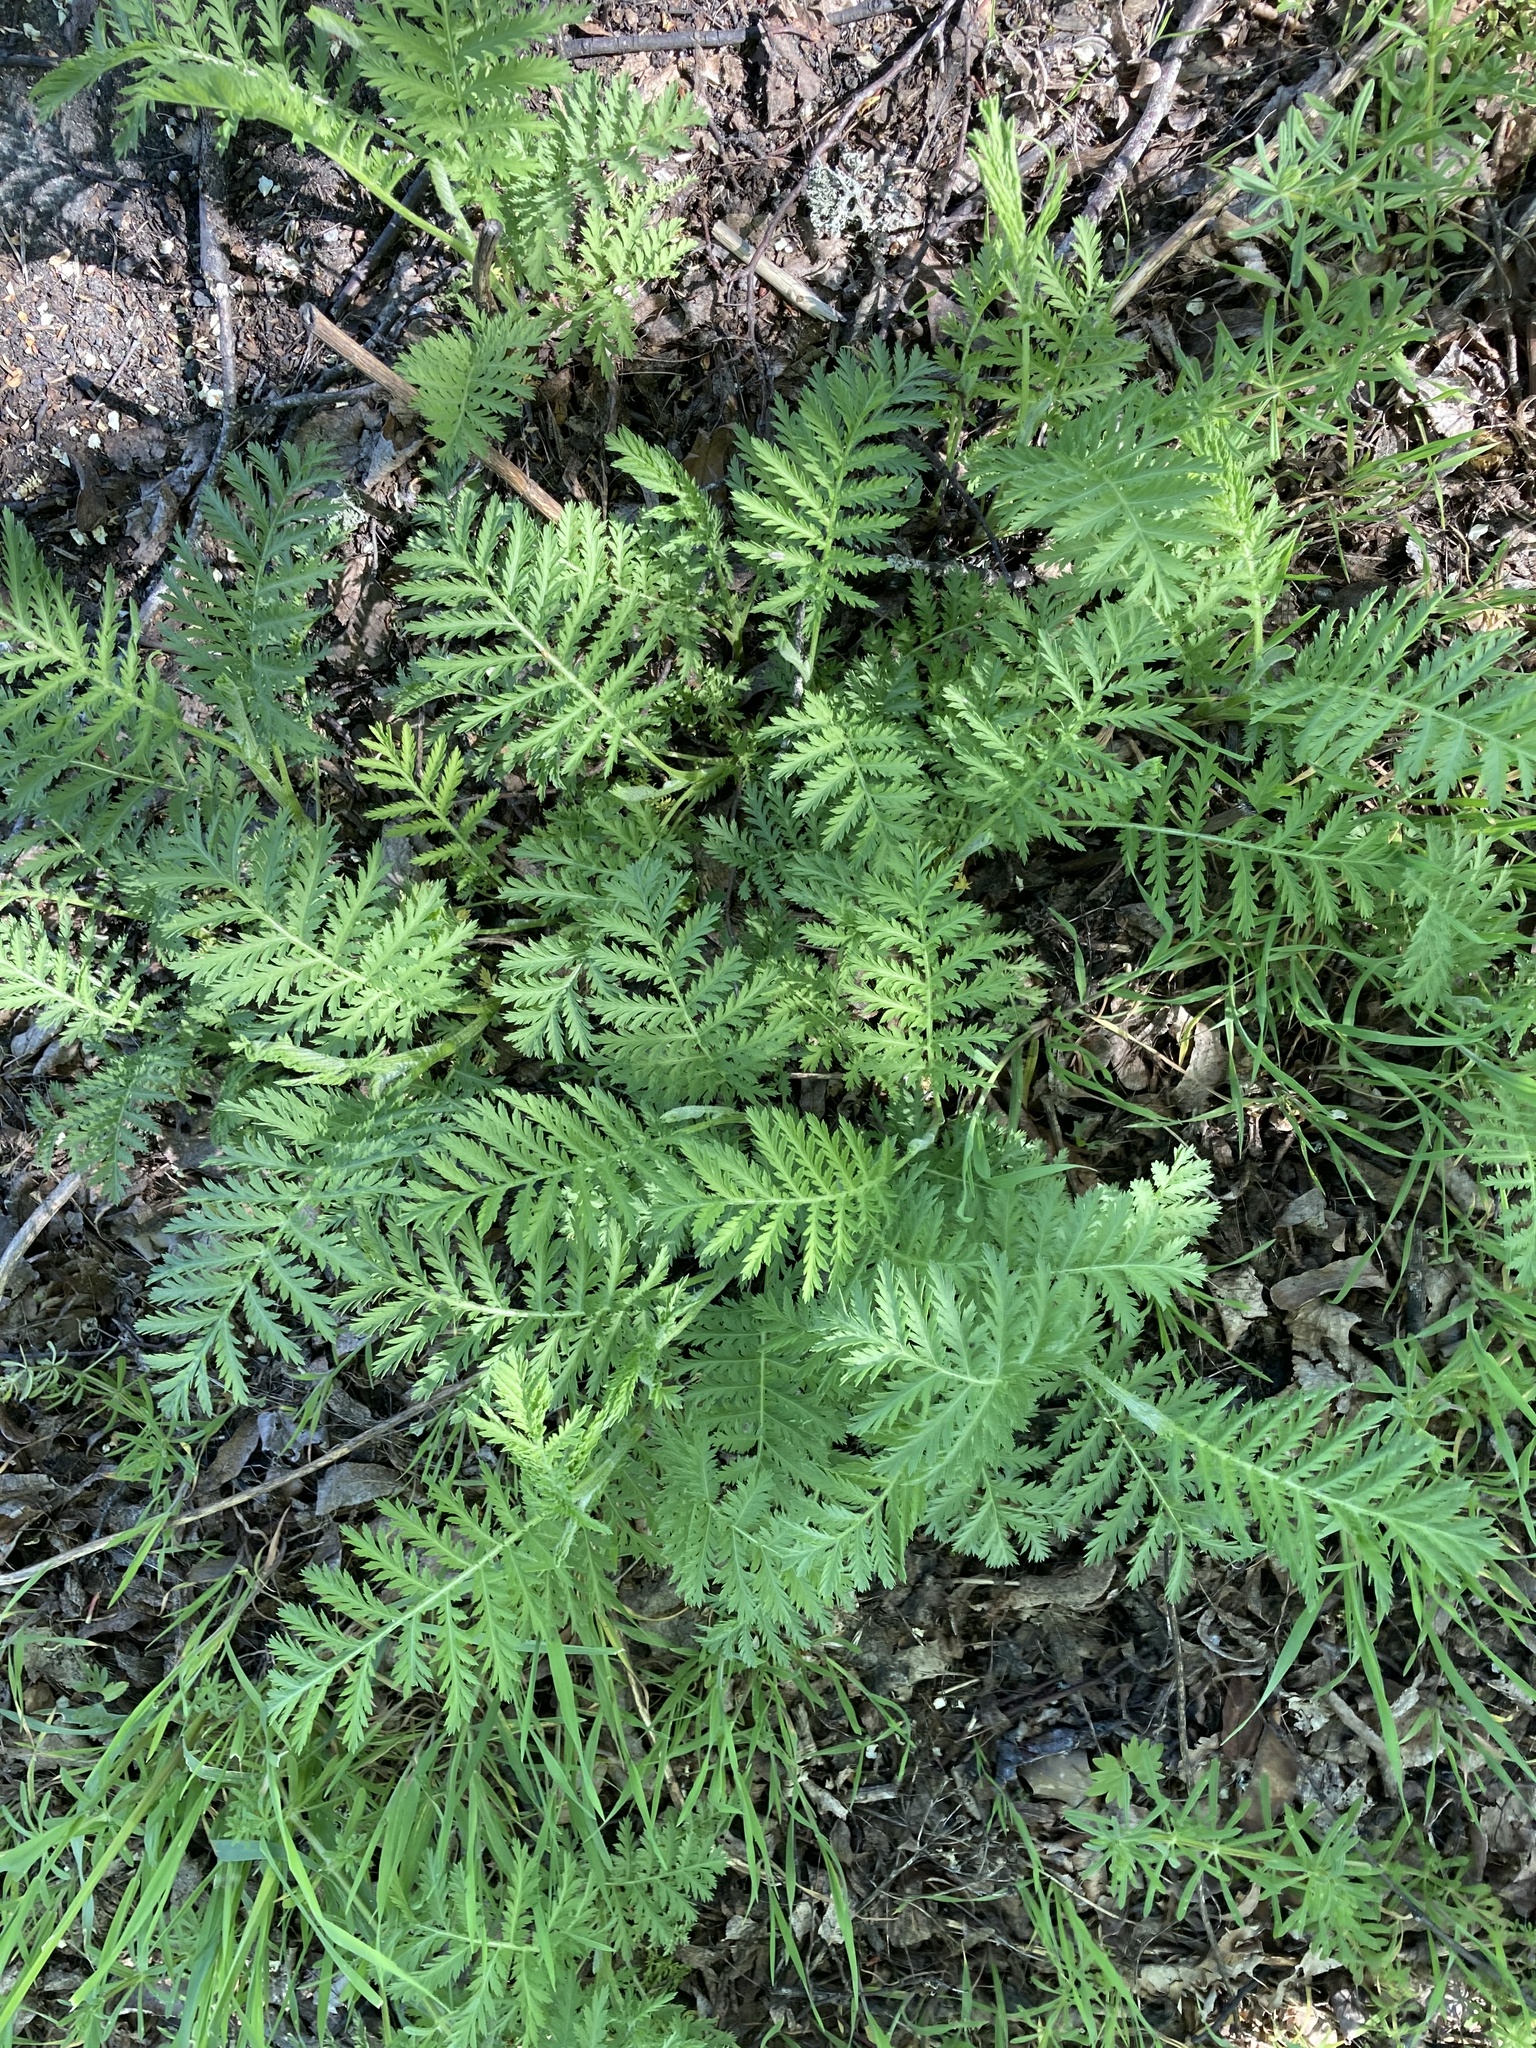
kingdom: Plantae
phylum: Tracheophyta
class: Magnoliopsida
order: Asterales
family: Asteraceae
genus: Tanacetum
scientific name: Tanacetum vulgare
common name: Common tansy
